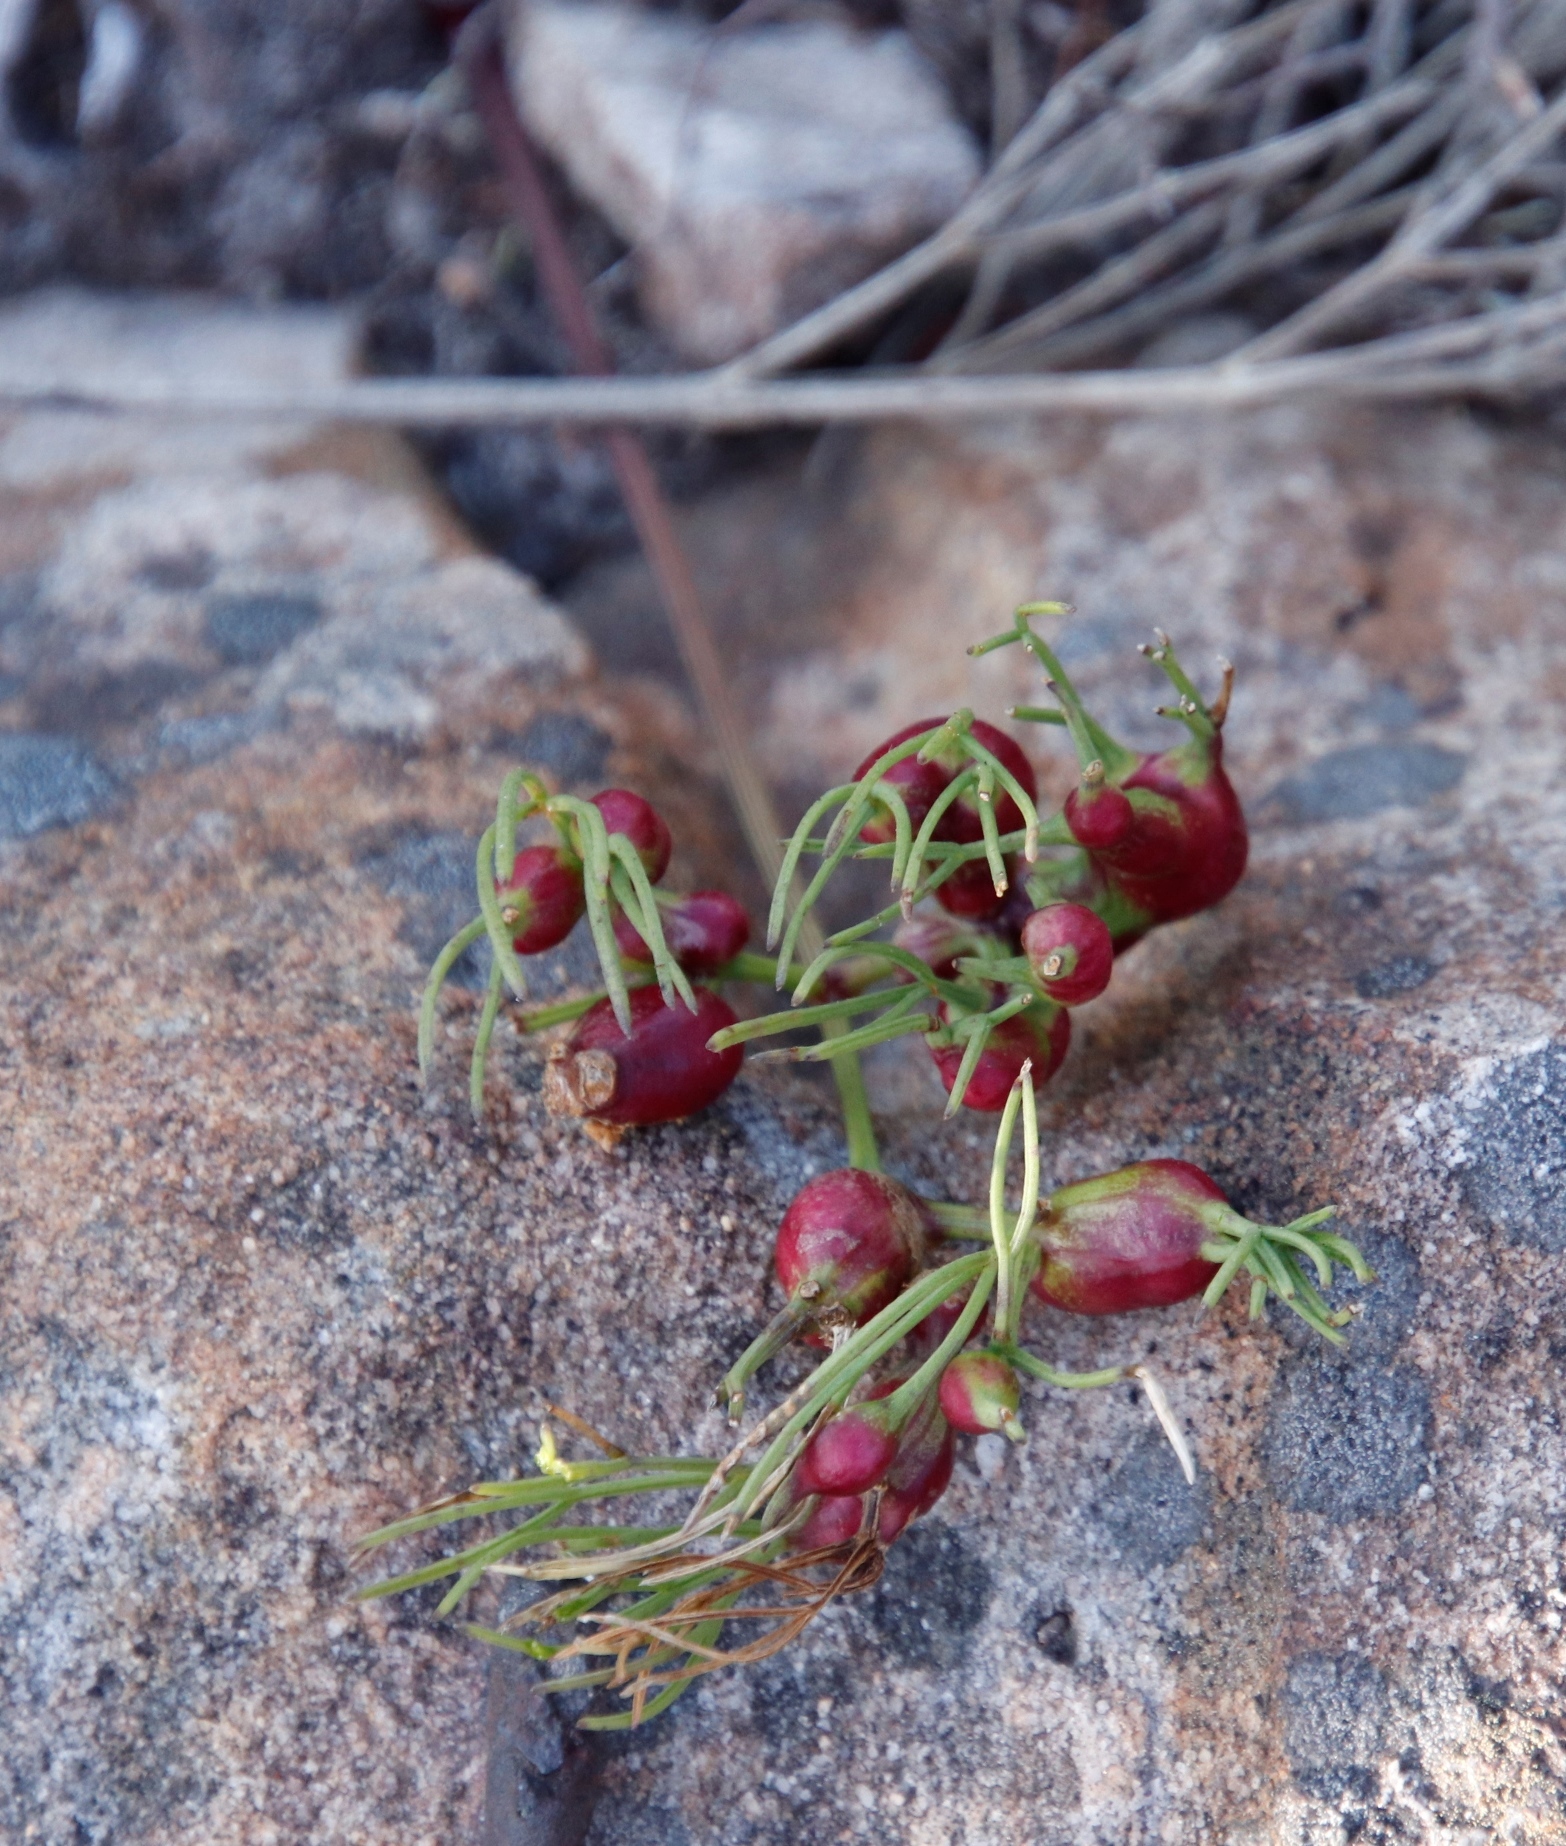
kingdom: Plantae
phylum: Tracheophyta
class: Magnoliopsida
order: Apiales
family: Apiaceae
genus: Nanobubon
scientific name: Nanobubon strictum
